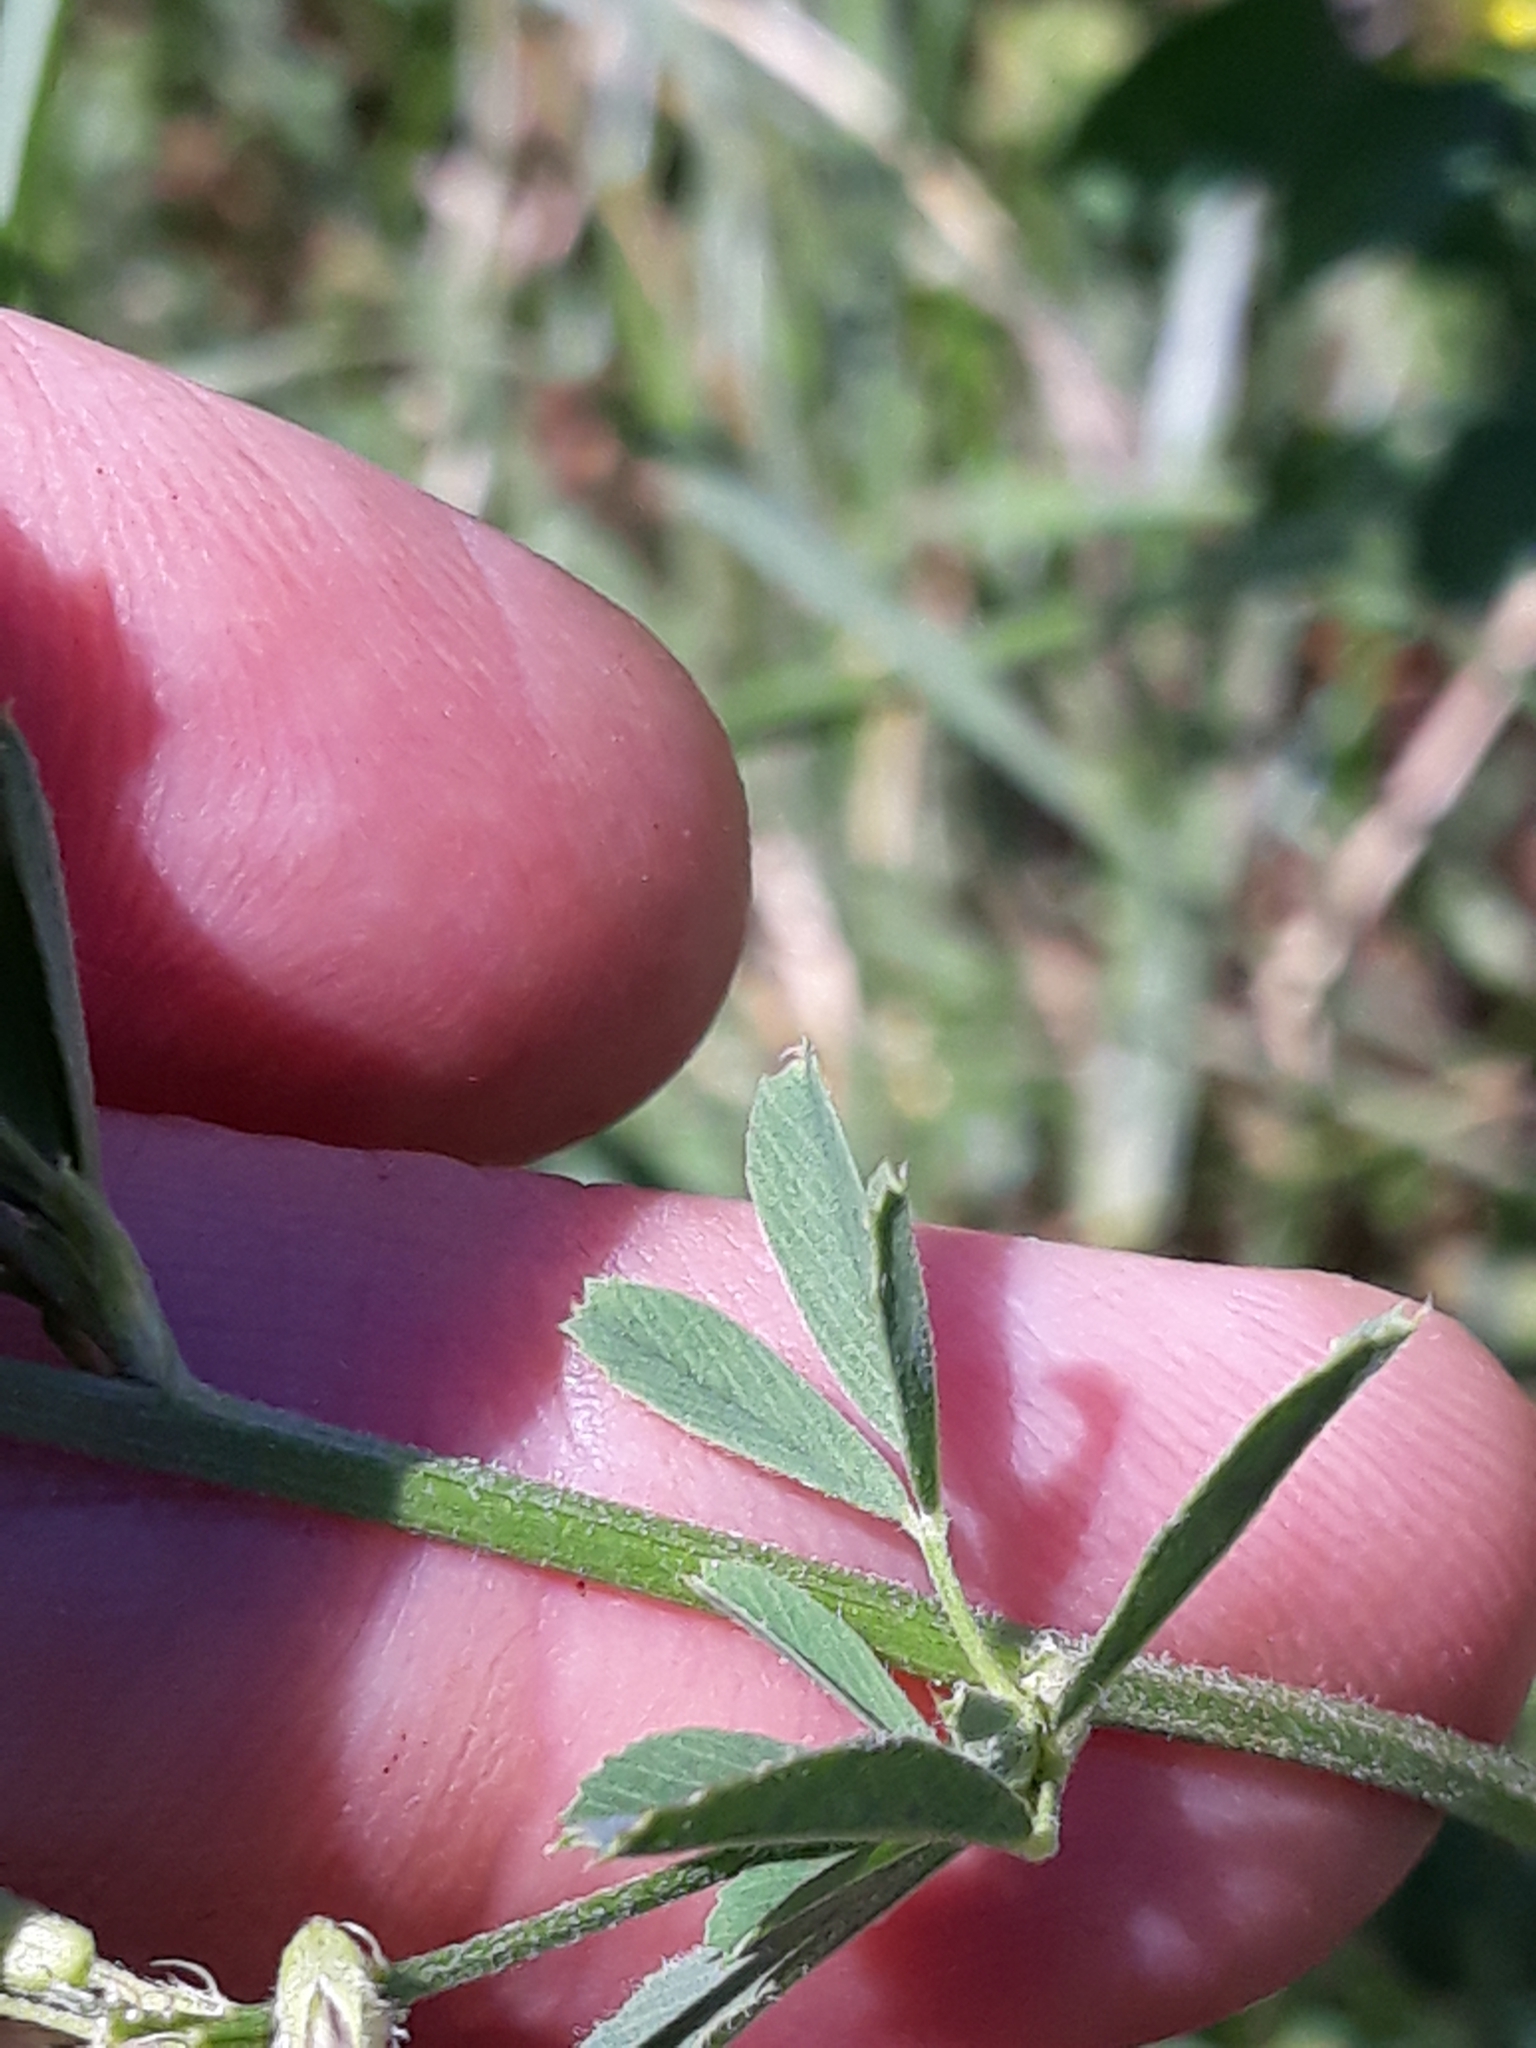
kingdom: Plantae
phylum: Tracheophyta
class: Magnoliopsida
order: Fabales
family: Fabaceae
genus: Medicago
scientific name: Medicago varia
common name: Sand lucerne
